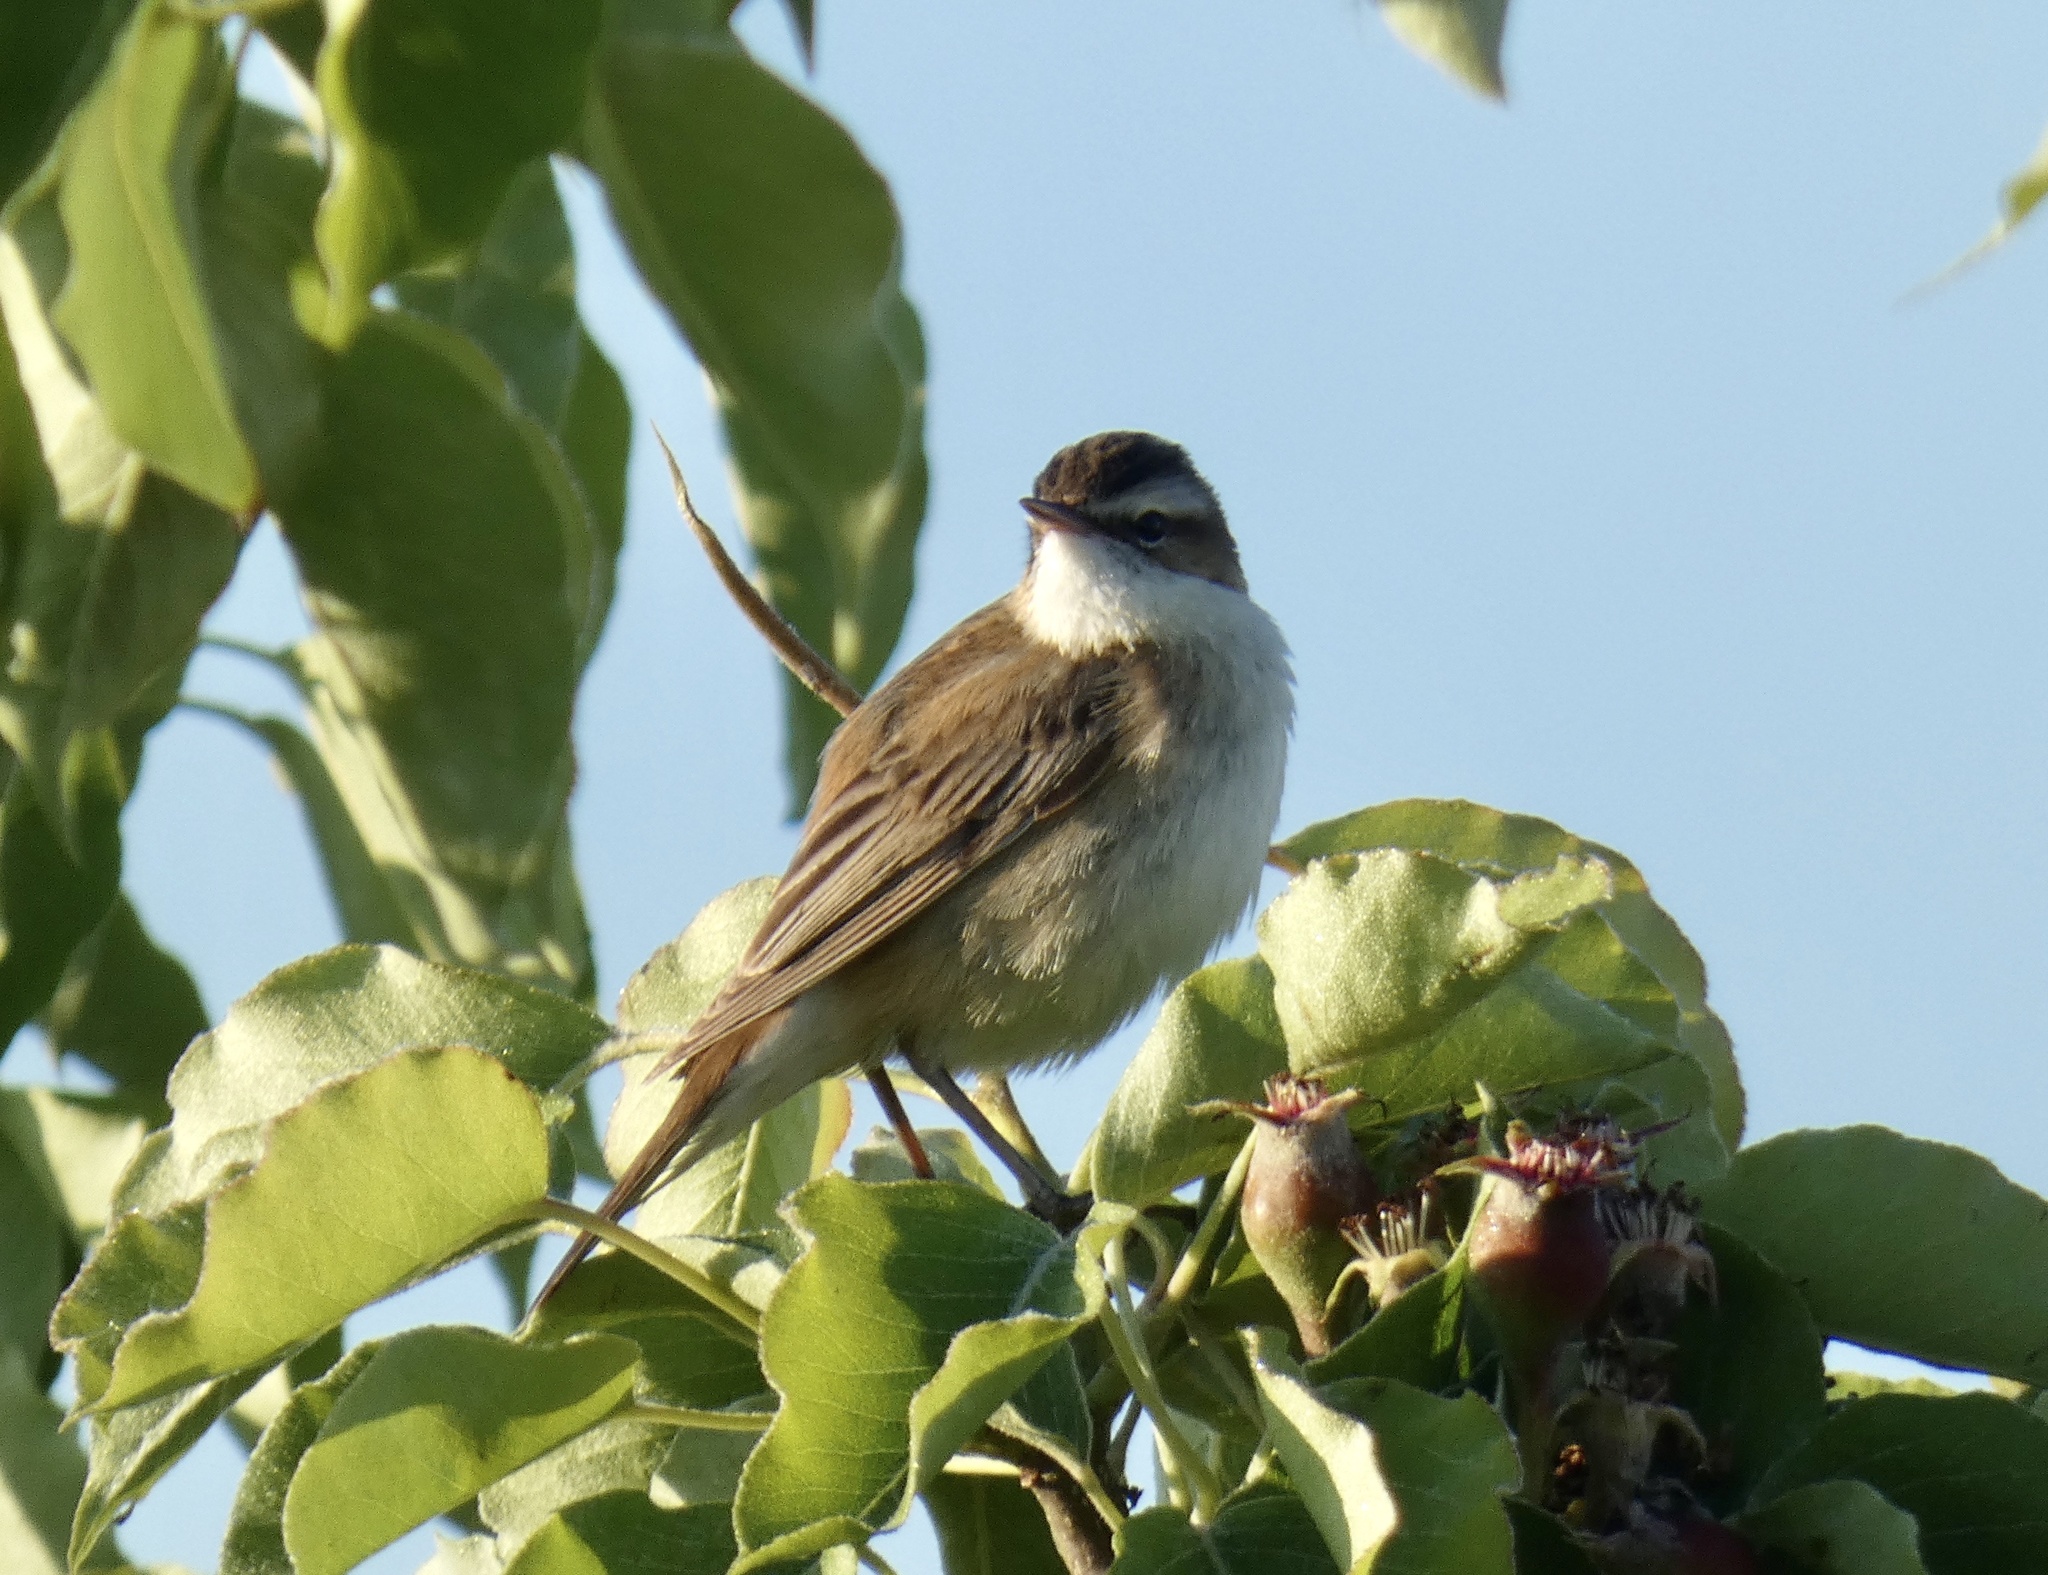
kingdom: Animalia
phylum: Chordata
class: Aves
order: Passeriformes
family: Acrocephalidae
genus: Acrocephalus
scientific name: Acrocephalus schoenobaenus
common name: Sedge warbler
